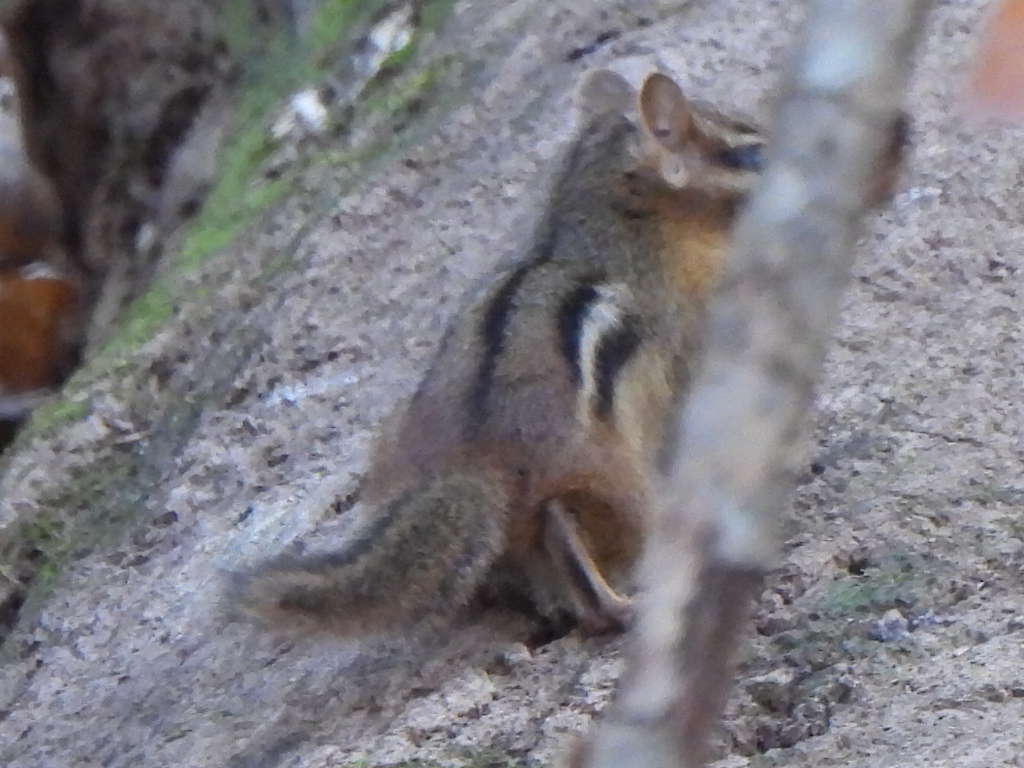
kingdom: Animalia
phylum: Chordata
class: Mammalia
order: Rodentia
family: Sciuridae
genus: Tamias
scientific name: Tamias striatus
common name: Eastern chipmunk
